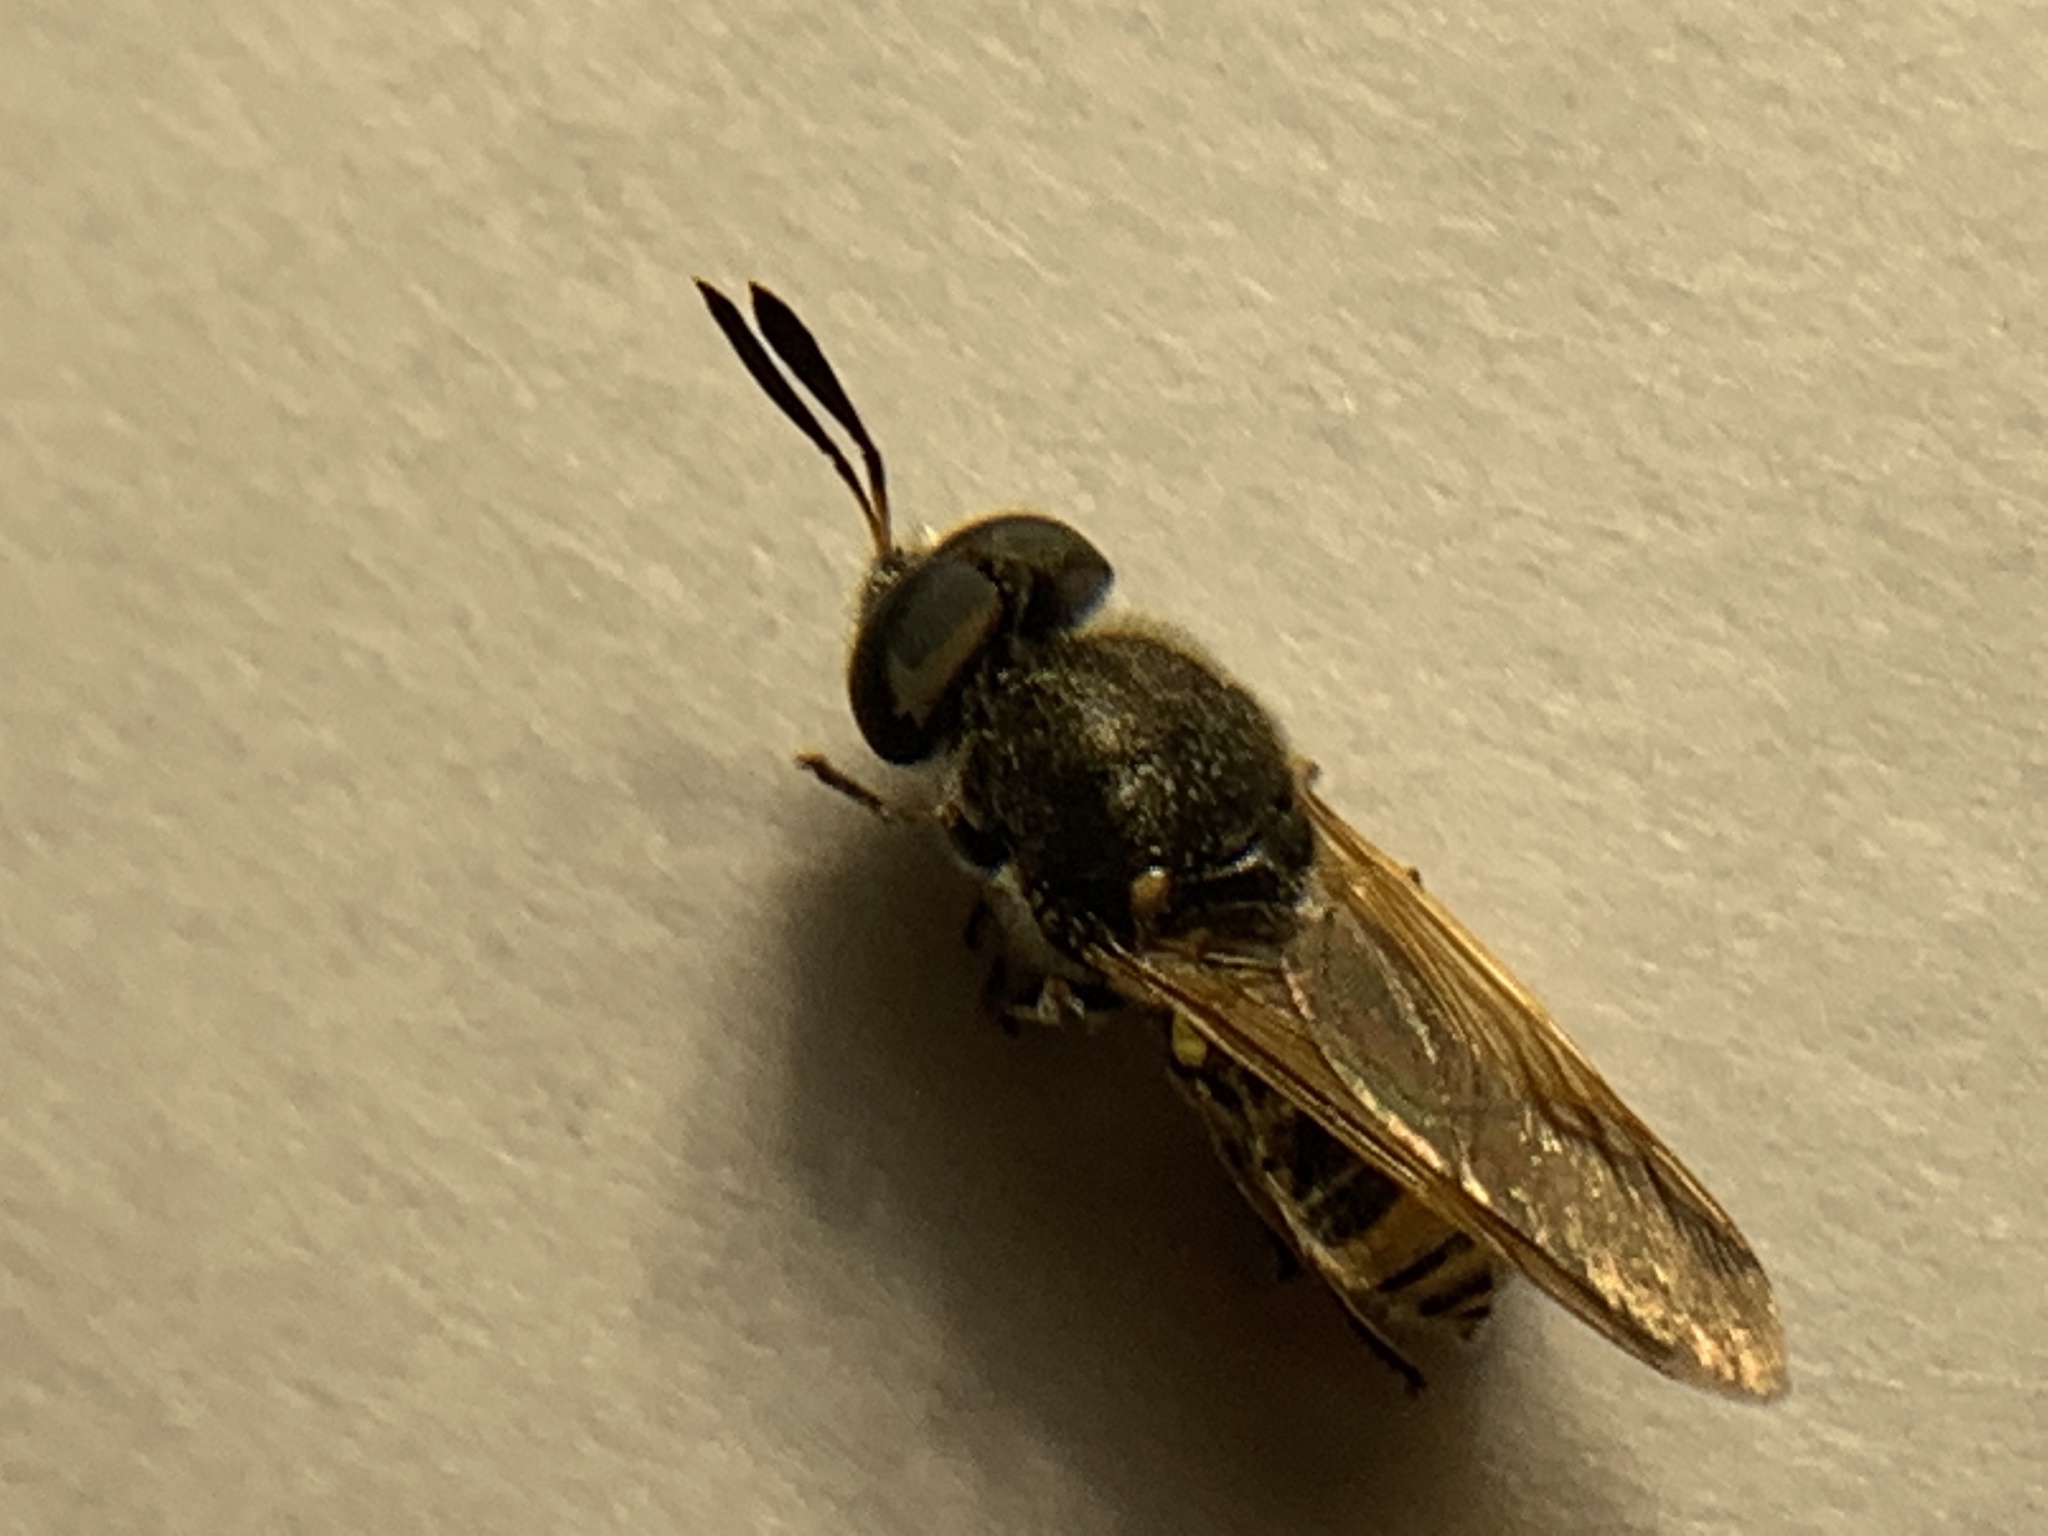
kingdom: Animalia
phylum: Arthropoda
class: Insecta
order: Diptera
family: Stratiomyidae
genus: Hoplitimyia
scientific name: Hoplitimyia constans
